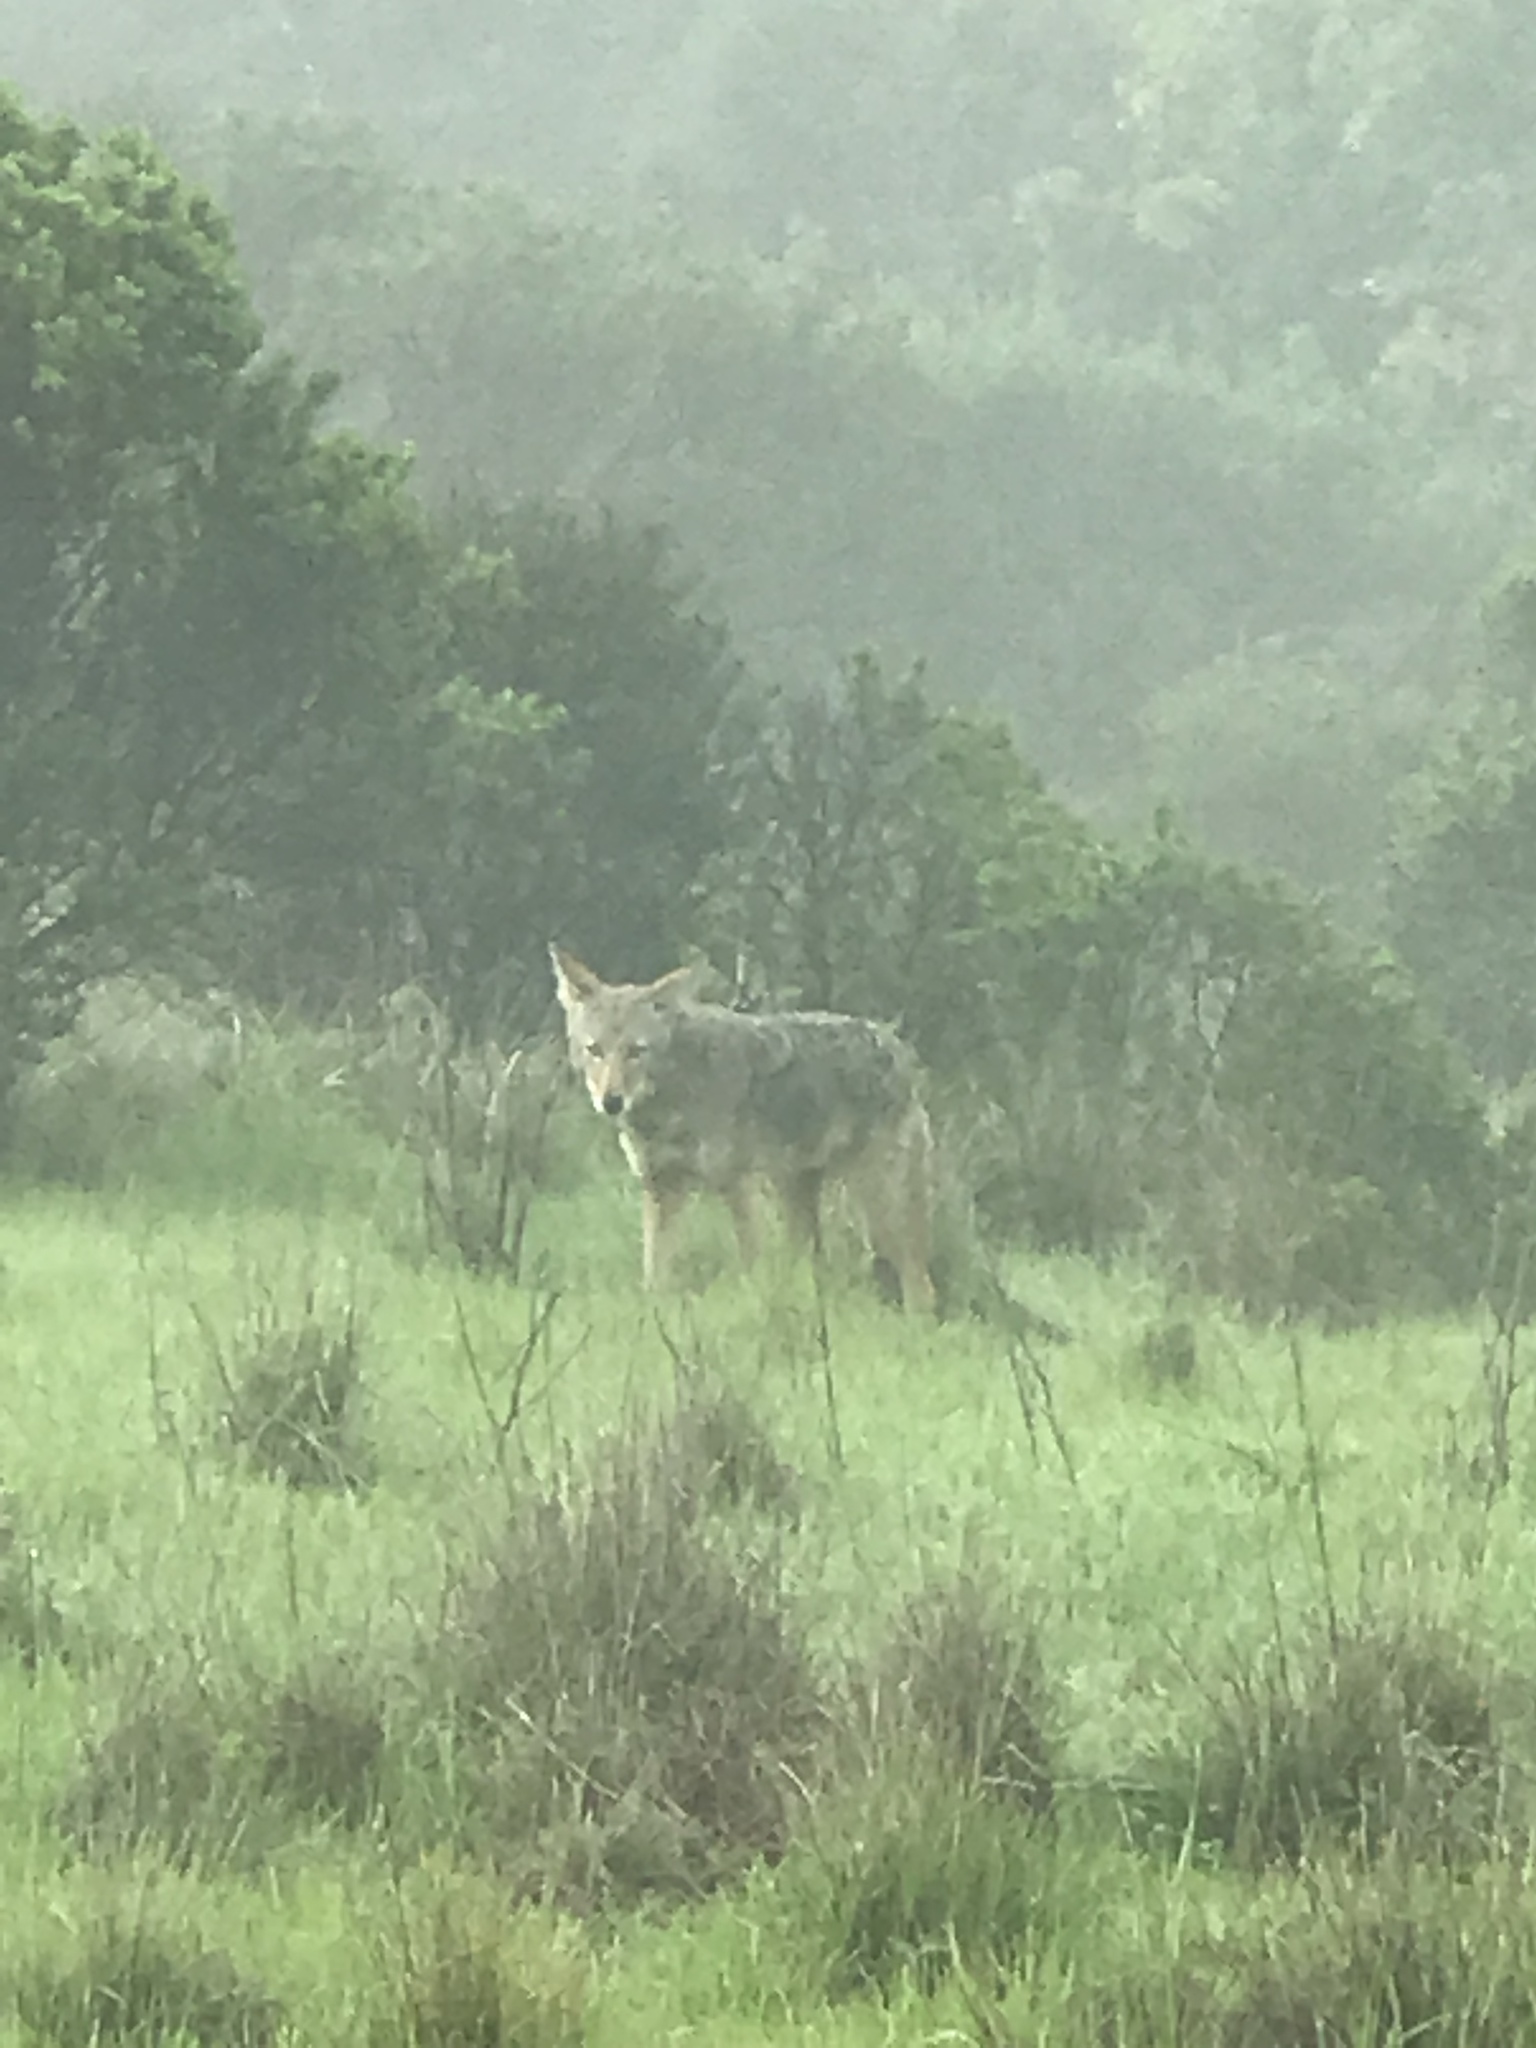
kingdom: Animalia
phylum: Chordata
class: Mammalia
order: Carnivora
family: Canidae
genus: Canis
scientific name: Canis latrans
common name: Coyote
